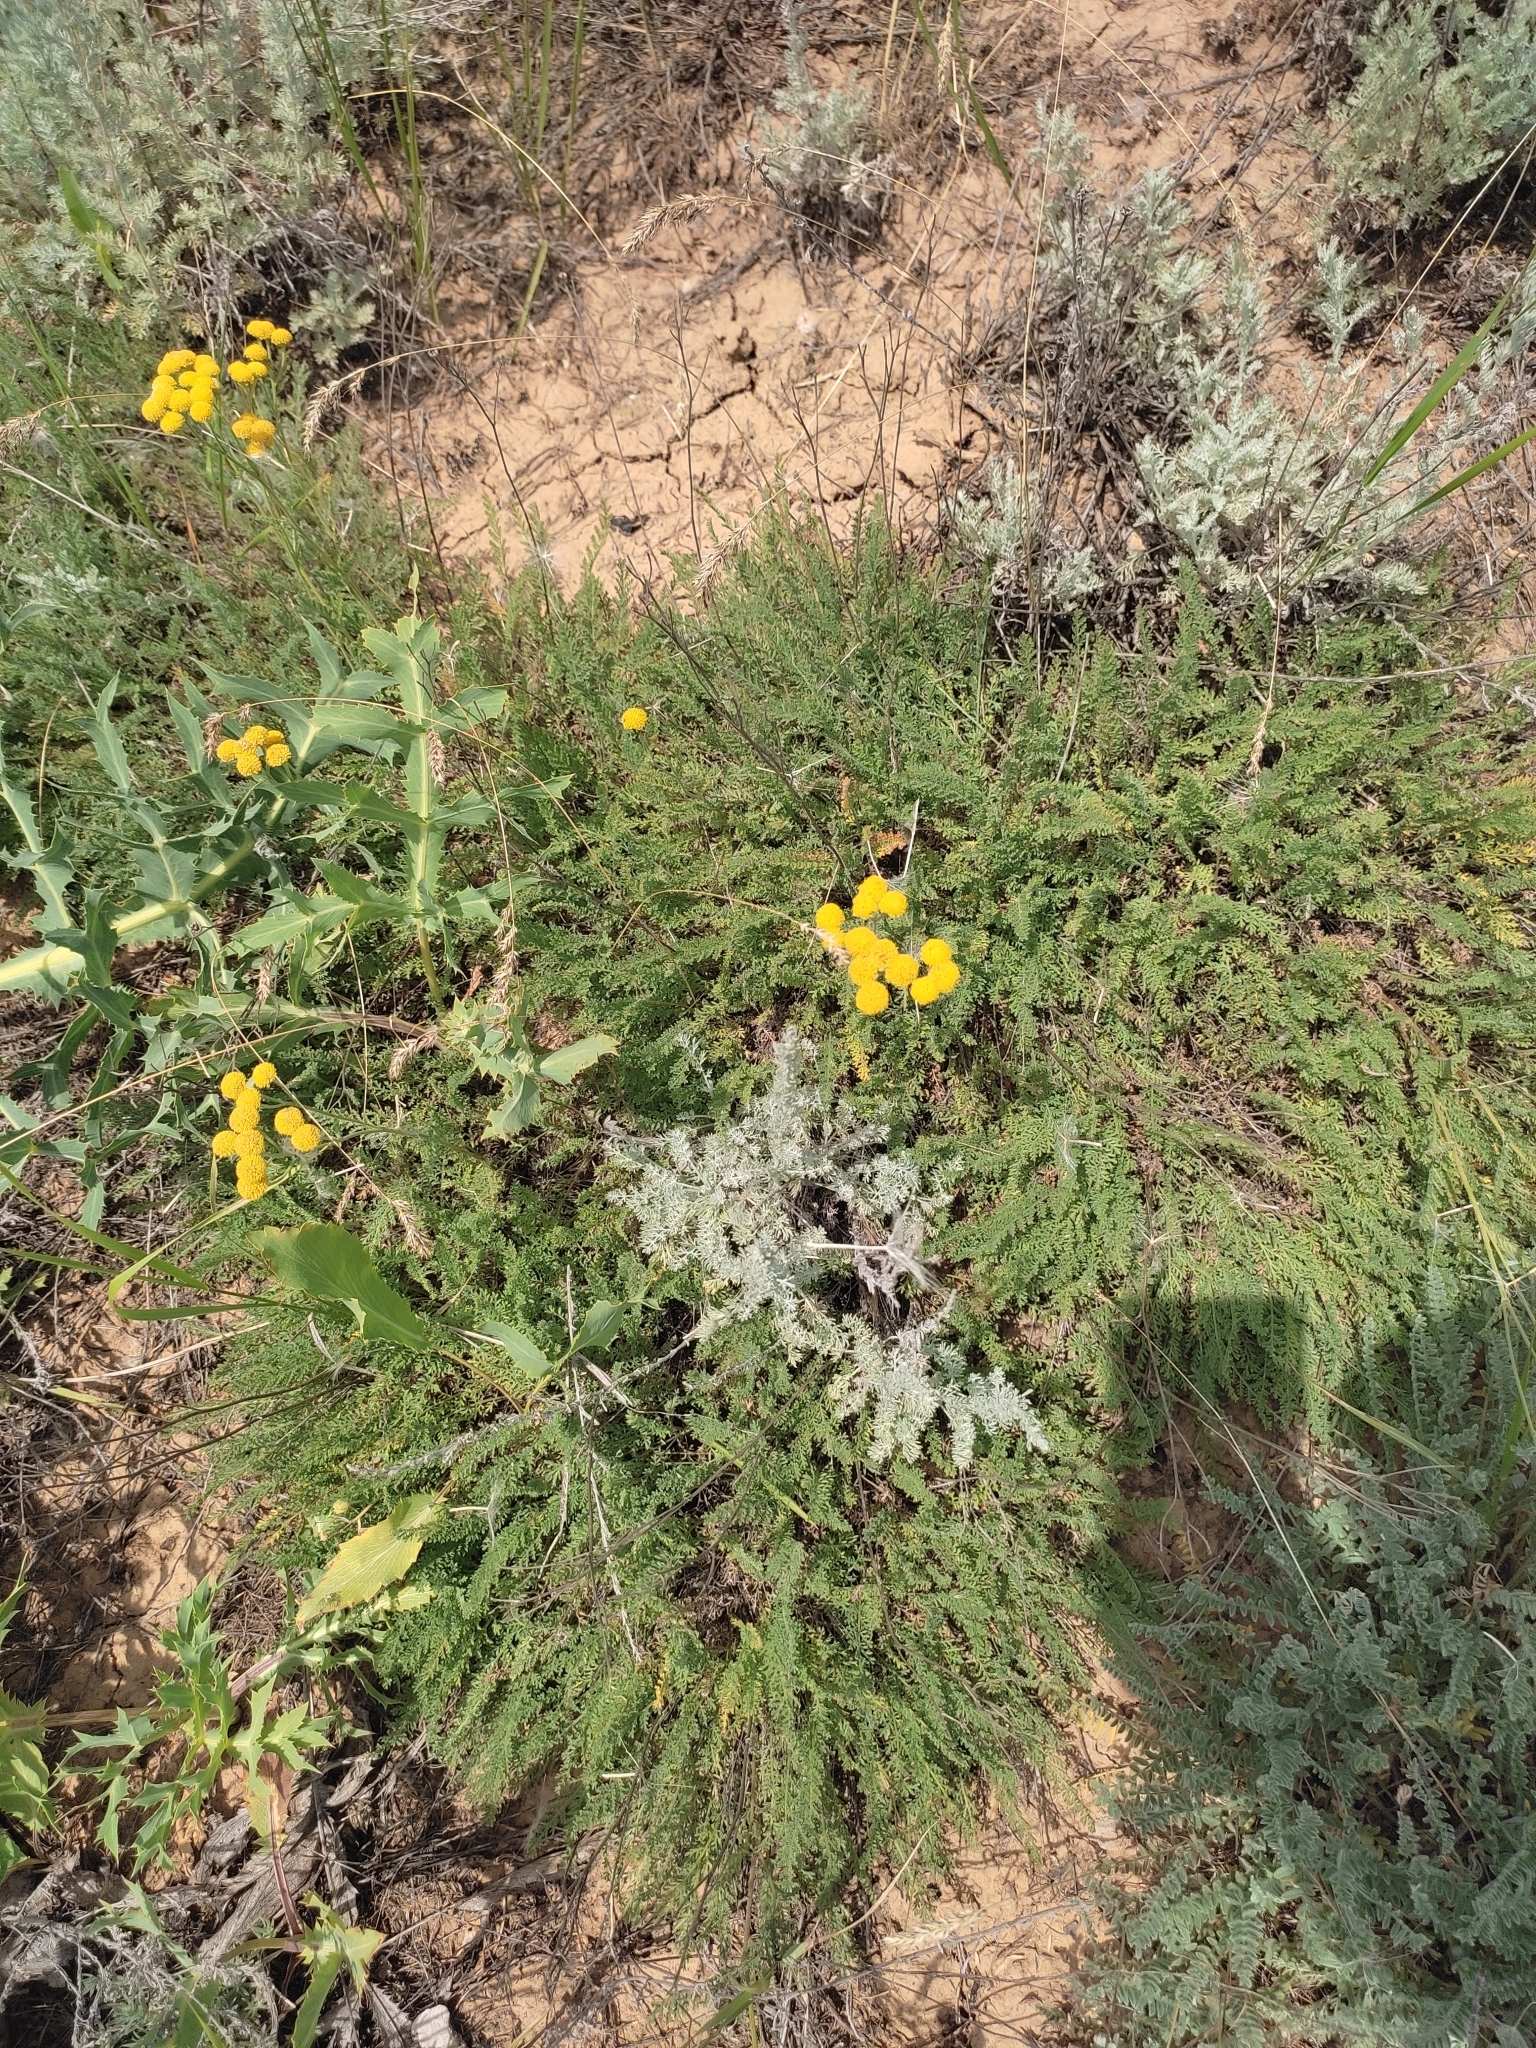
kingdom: Plantae
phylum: Tracheophyta
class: Magnoliopsida
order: Asterales
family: Asteraceae
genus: Tanacetum
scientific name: Tanacetum achilleifolium
